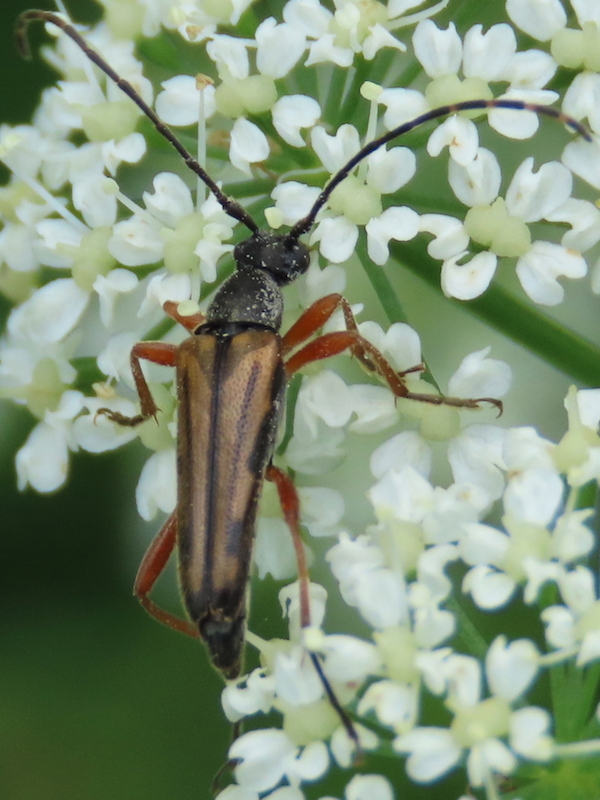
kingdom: Animalia
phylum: Arthropoda
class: Insecta
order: Coleoptera
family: Cerambycidae
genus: Analeptura
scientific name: Analeptura lineola
